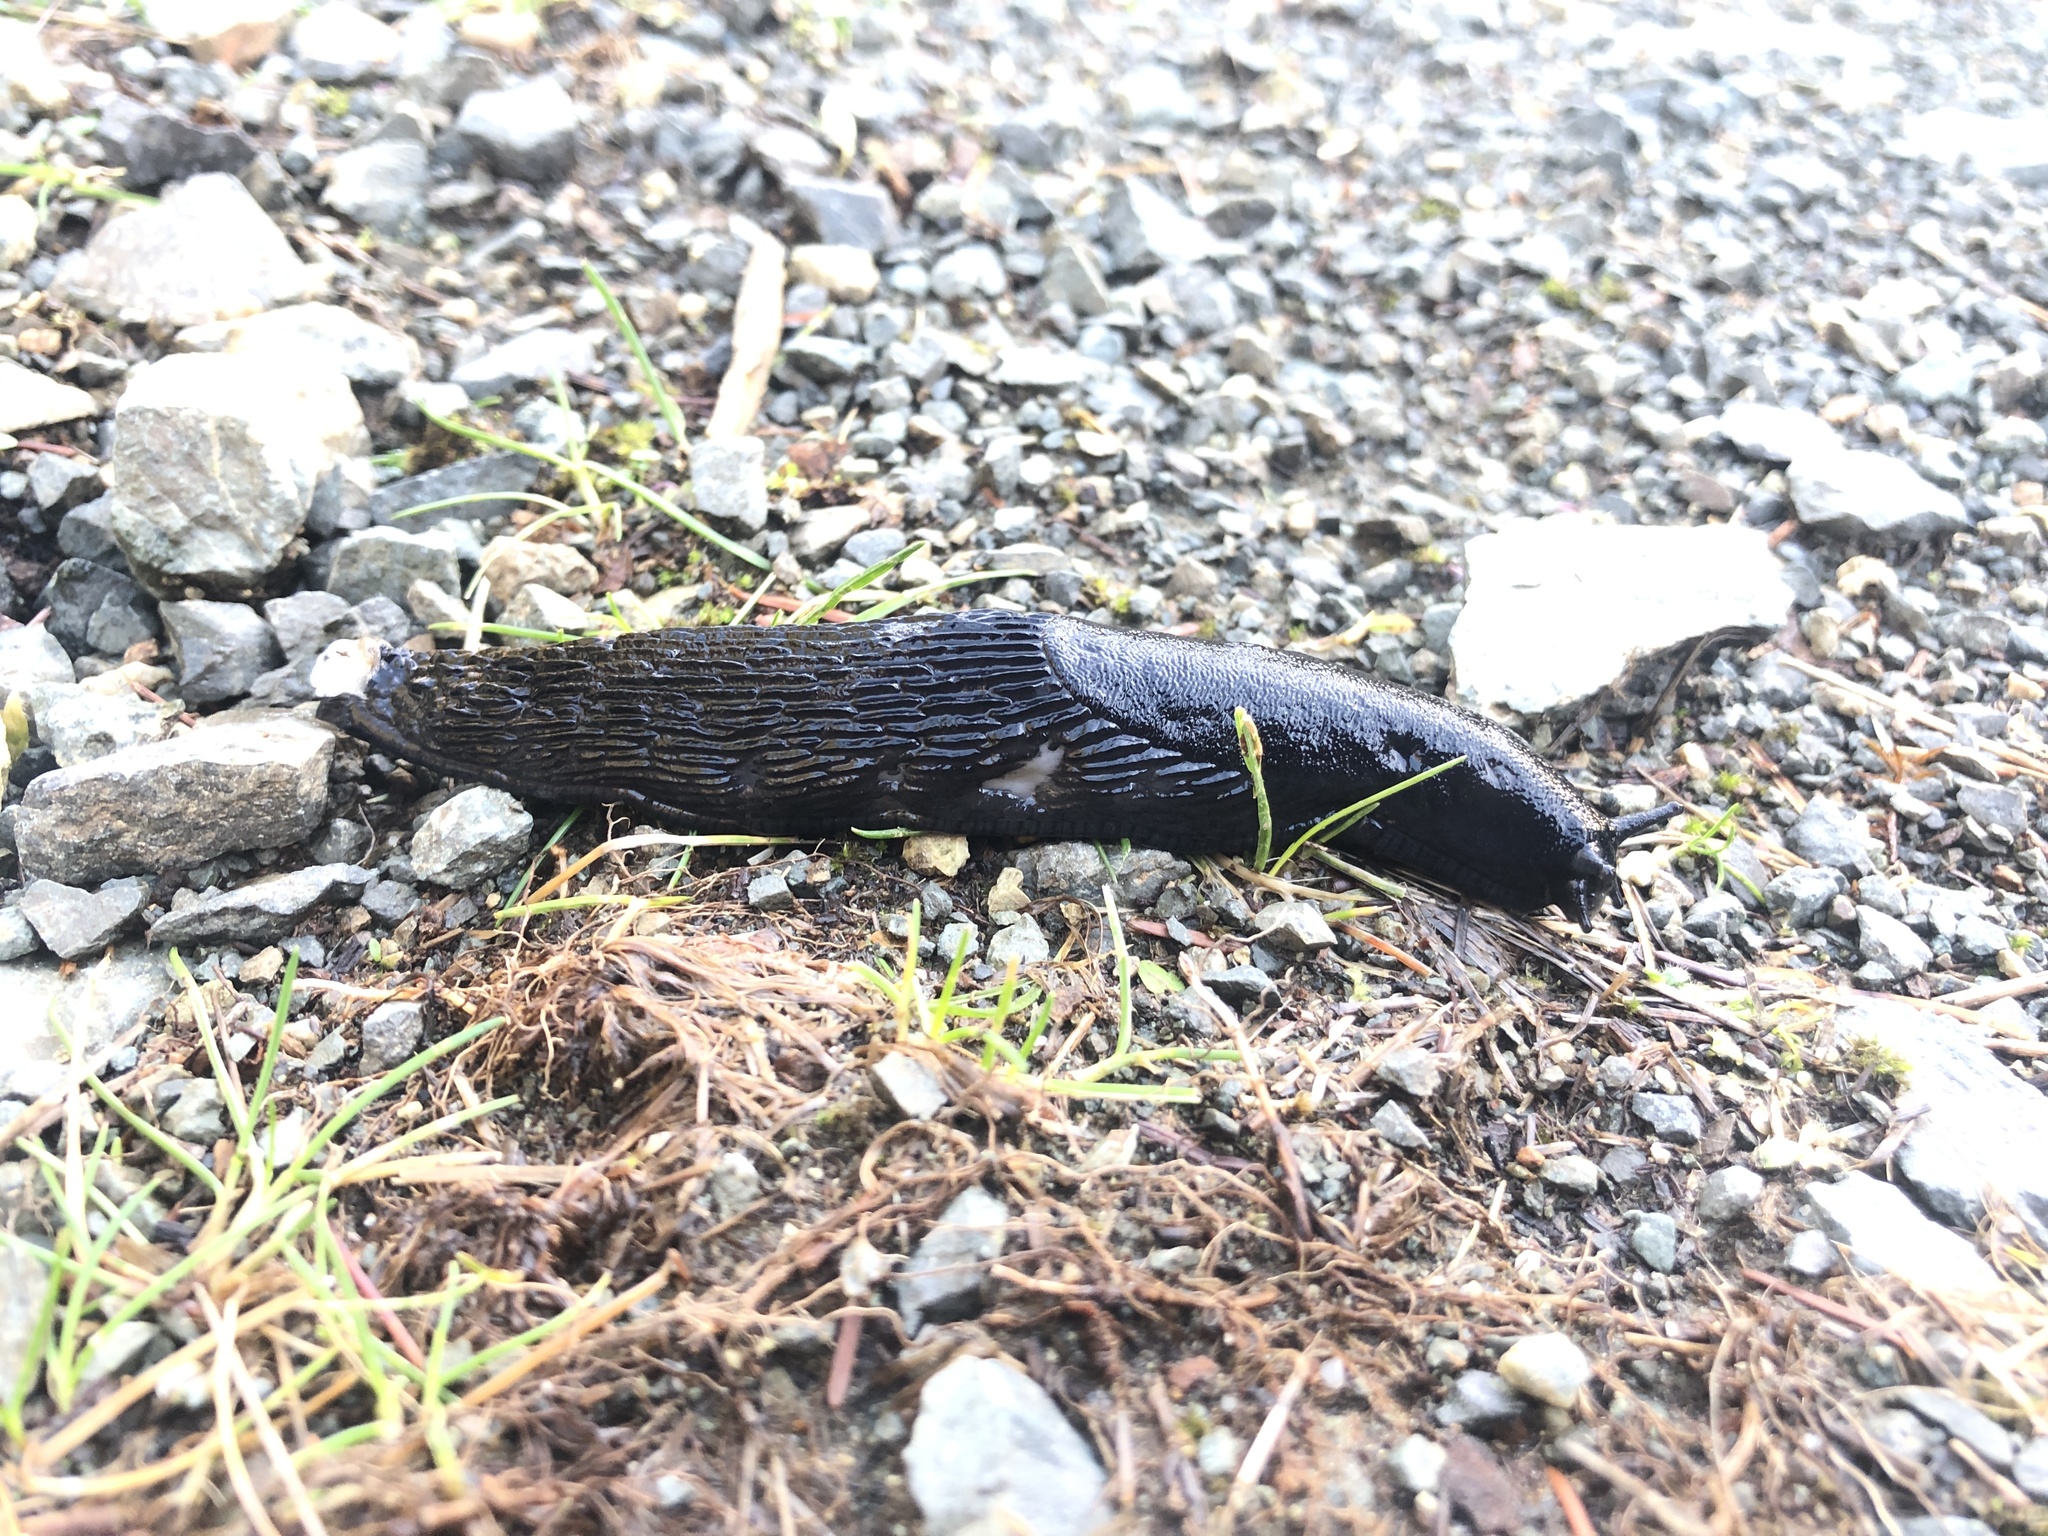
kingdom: Animalia
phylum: Mollusca
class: Gastropoda
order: Stylommatophora
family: Arionidae
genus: Arion
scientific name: Arion rufus
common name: Chocolate arion
